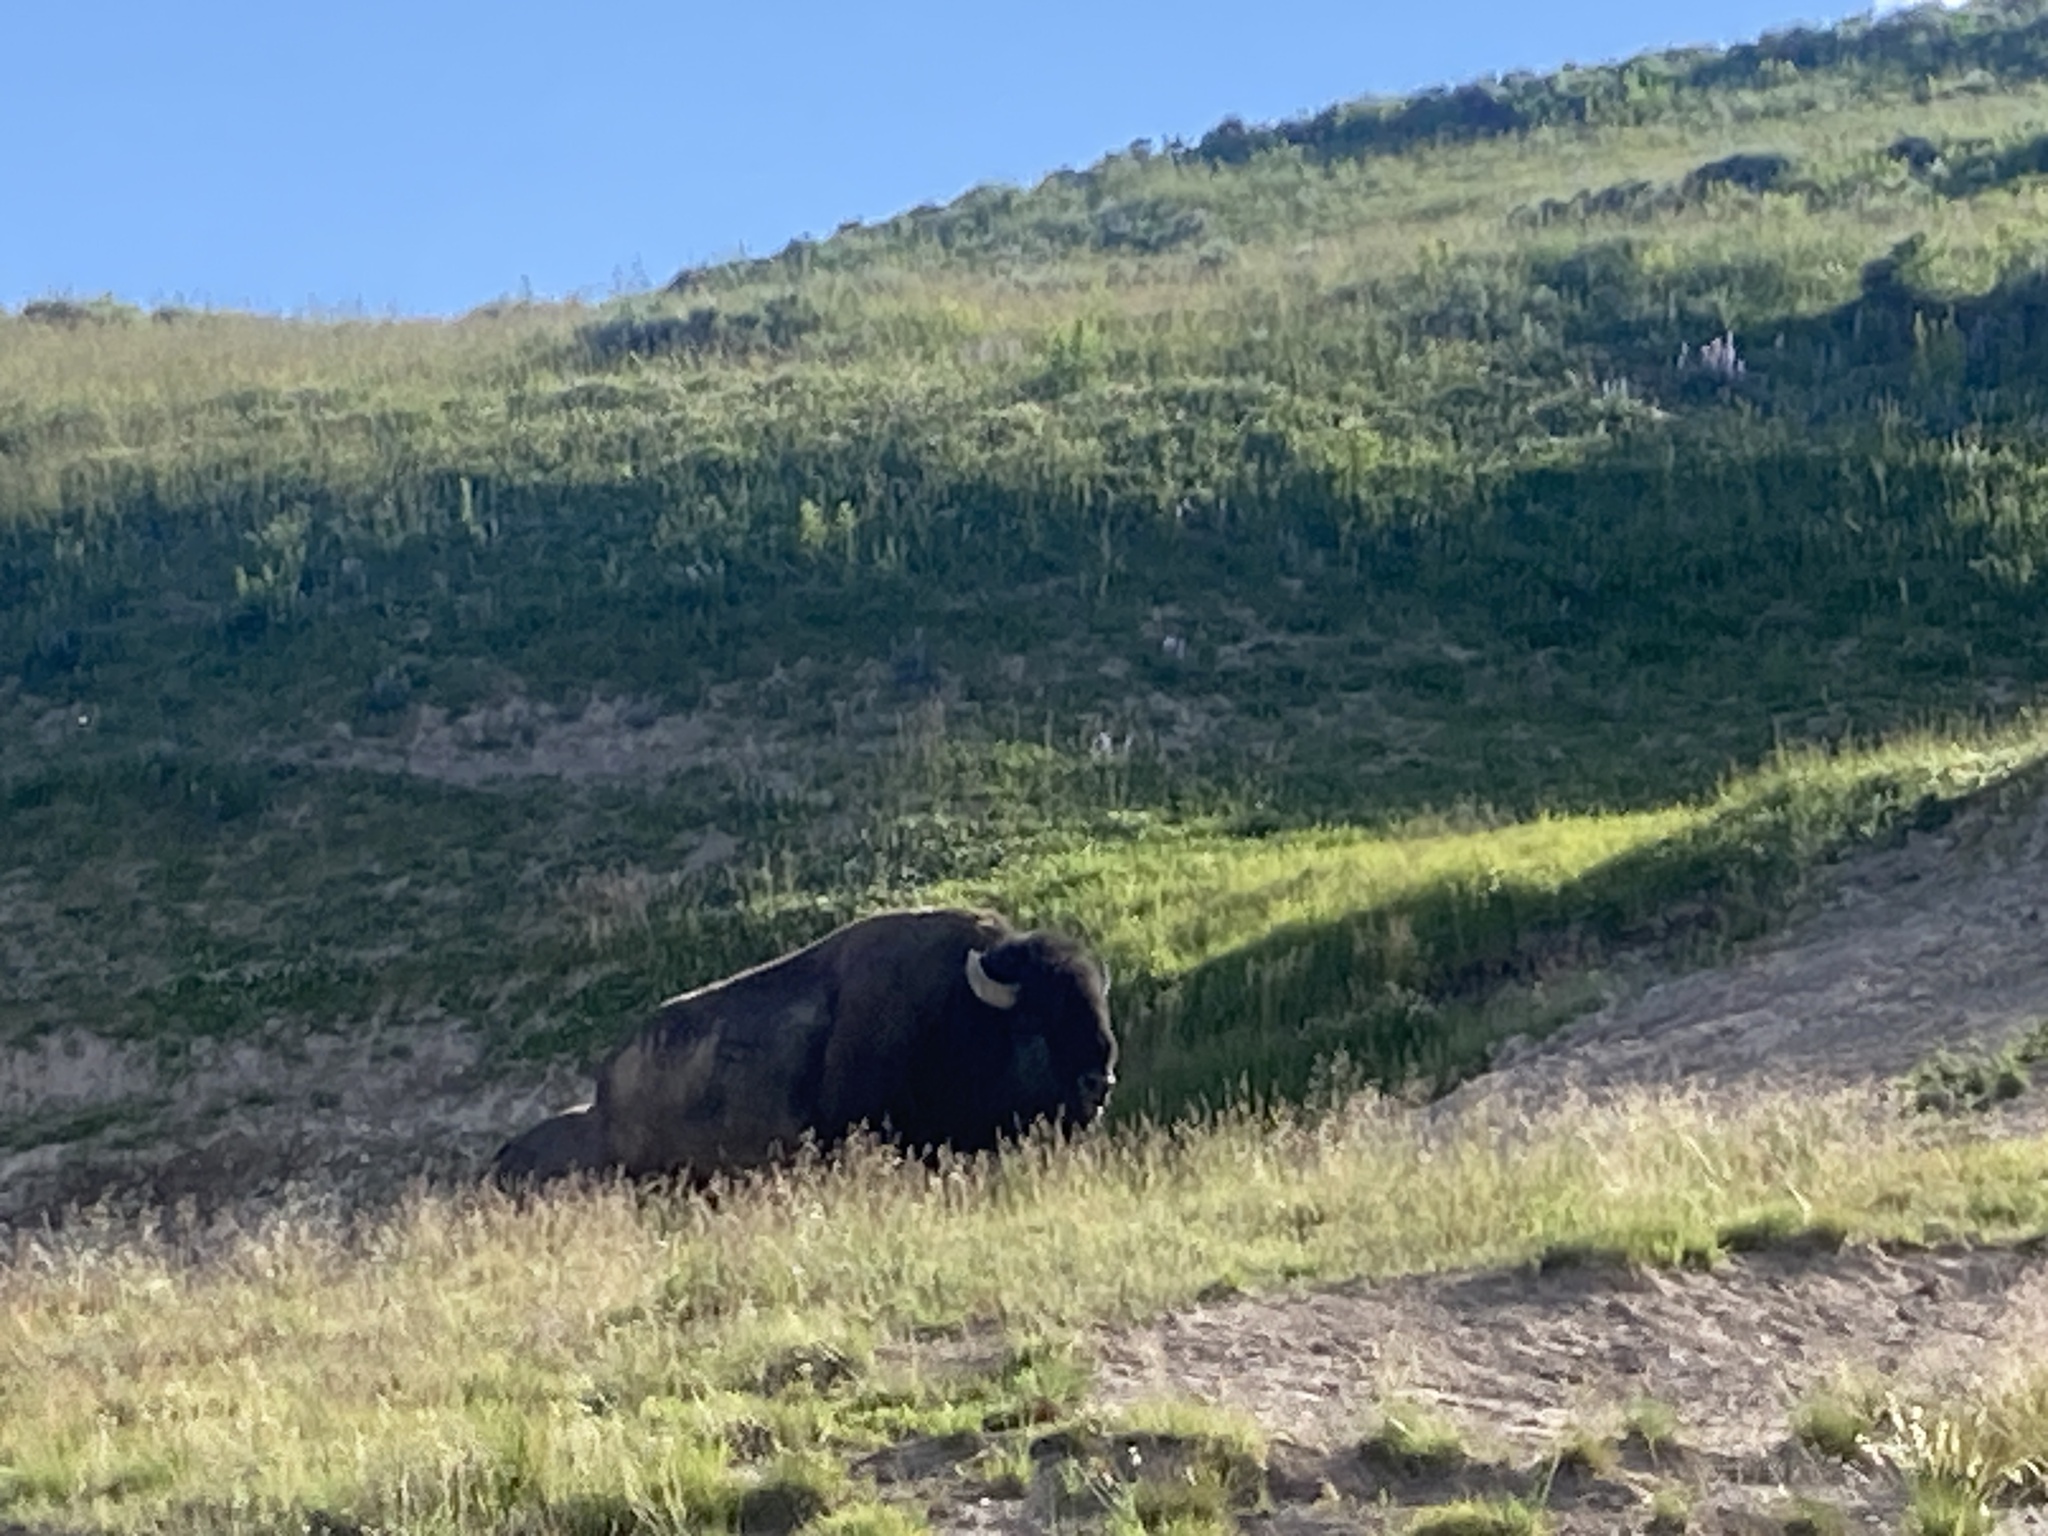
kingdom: Animalia
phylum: Chordata
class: Mammalia
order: Artiodactyla
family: Bovidae
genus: Bison
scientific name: Bison bison
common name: American bison
